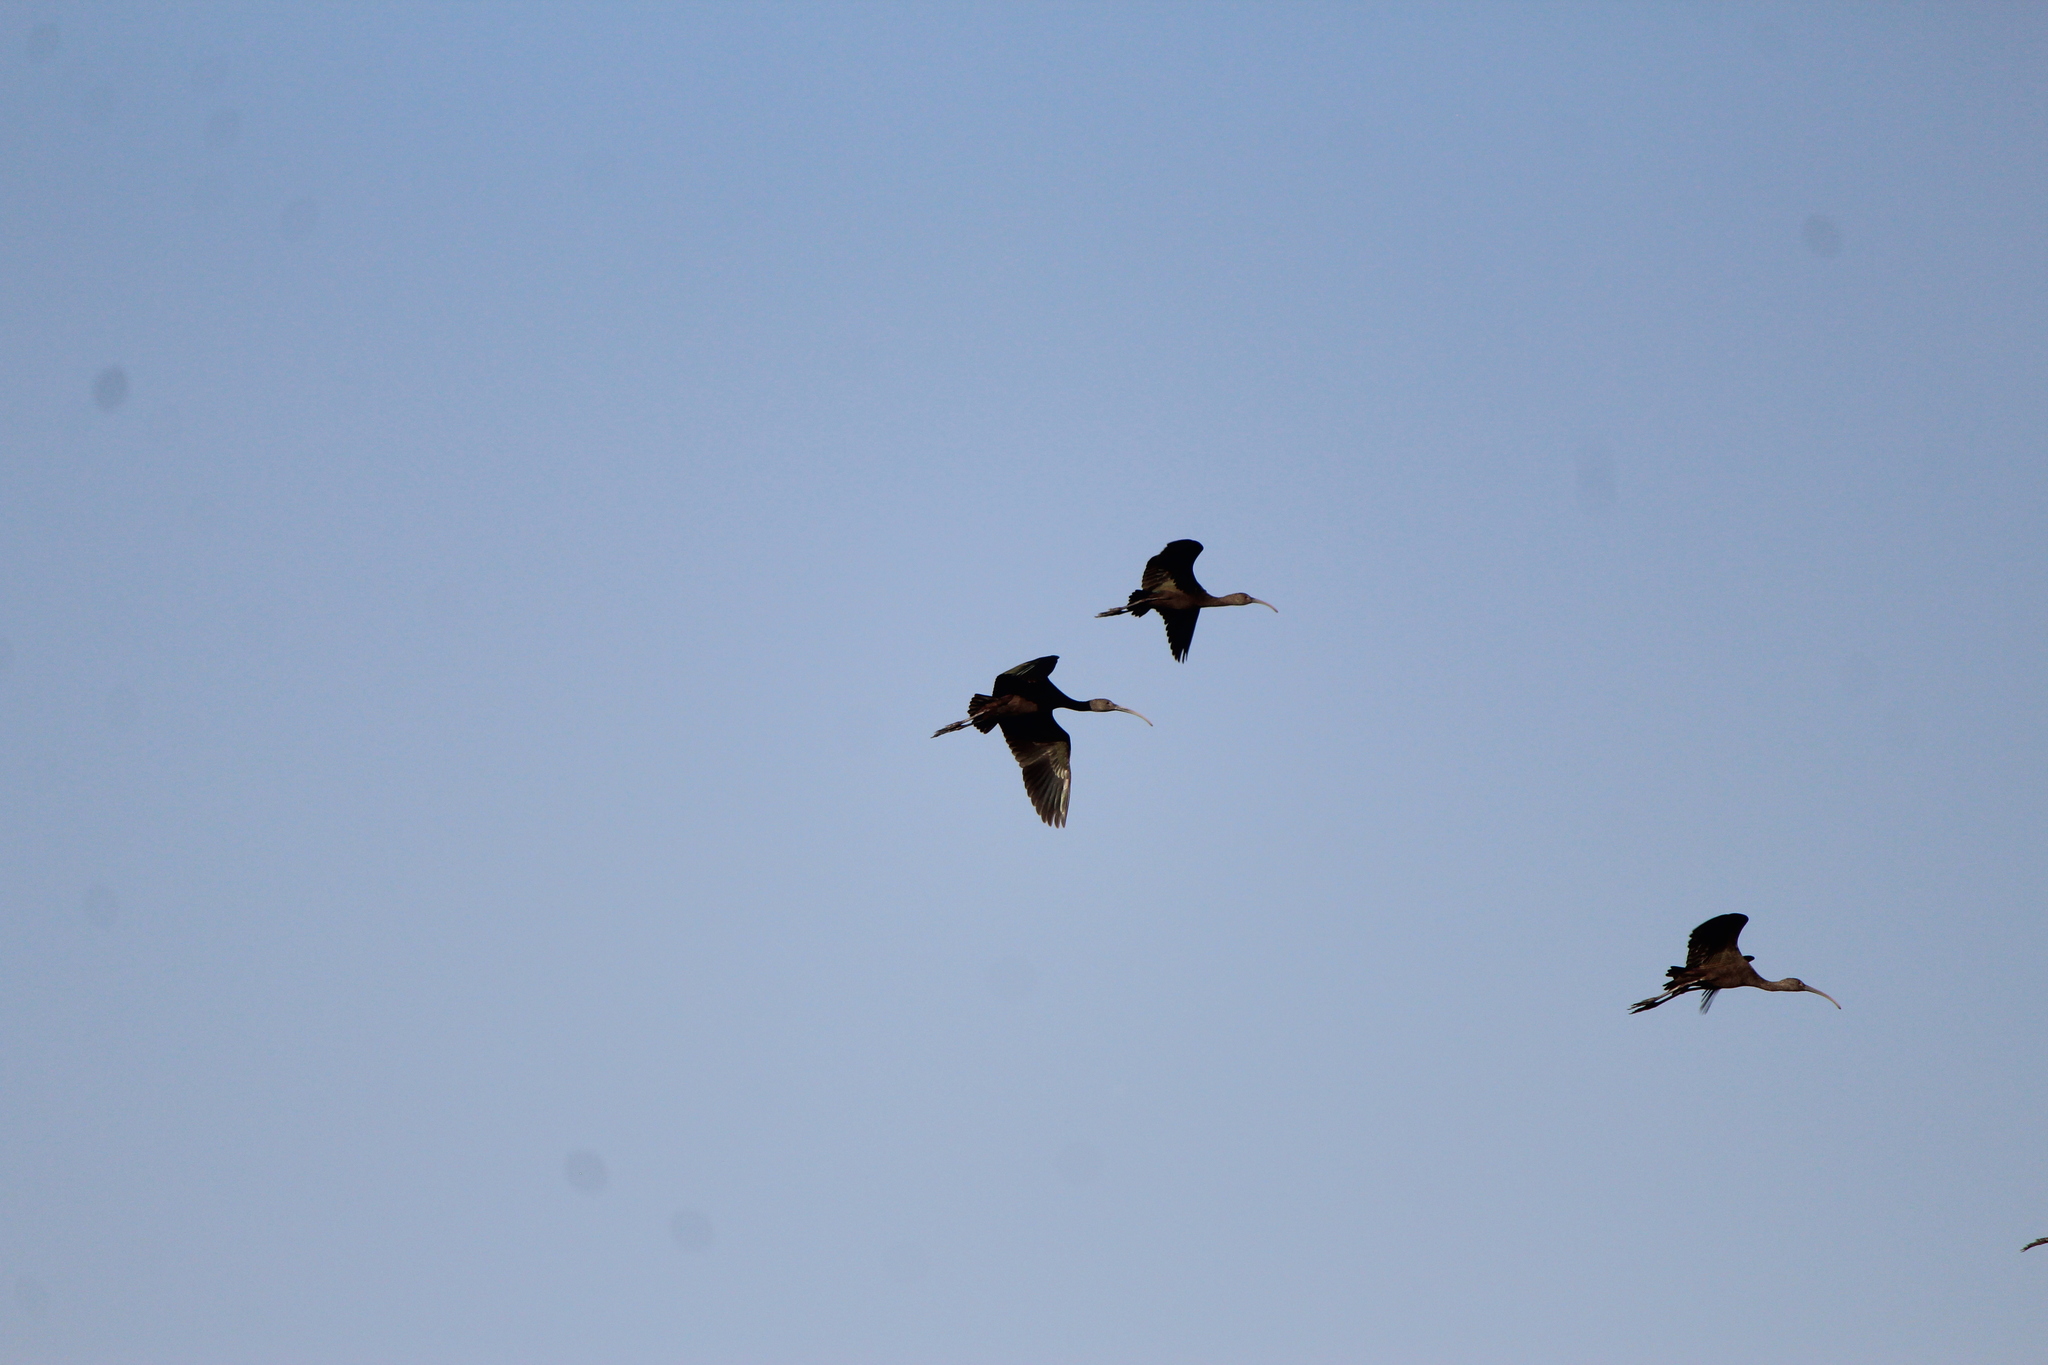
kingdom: Animalia
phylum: Chordata
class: Aves
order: Pelecaniformes
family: Threskiornithidae
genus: Plegadis
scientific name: Plegadis chihi
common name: White-faced ibis
